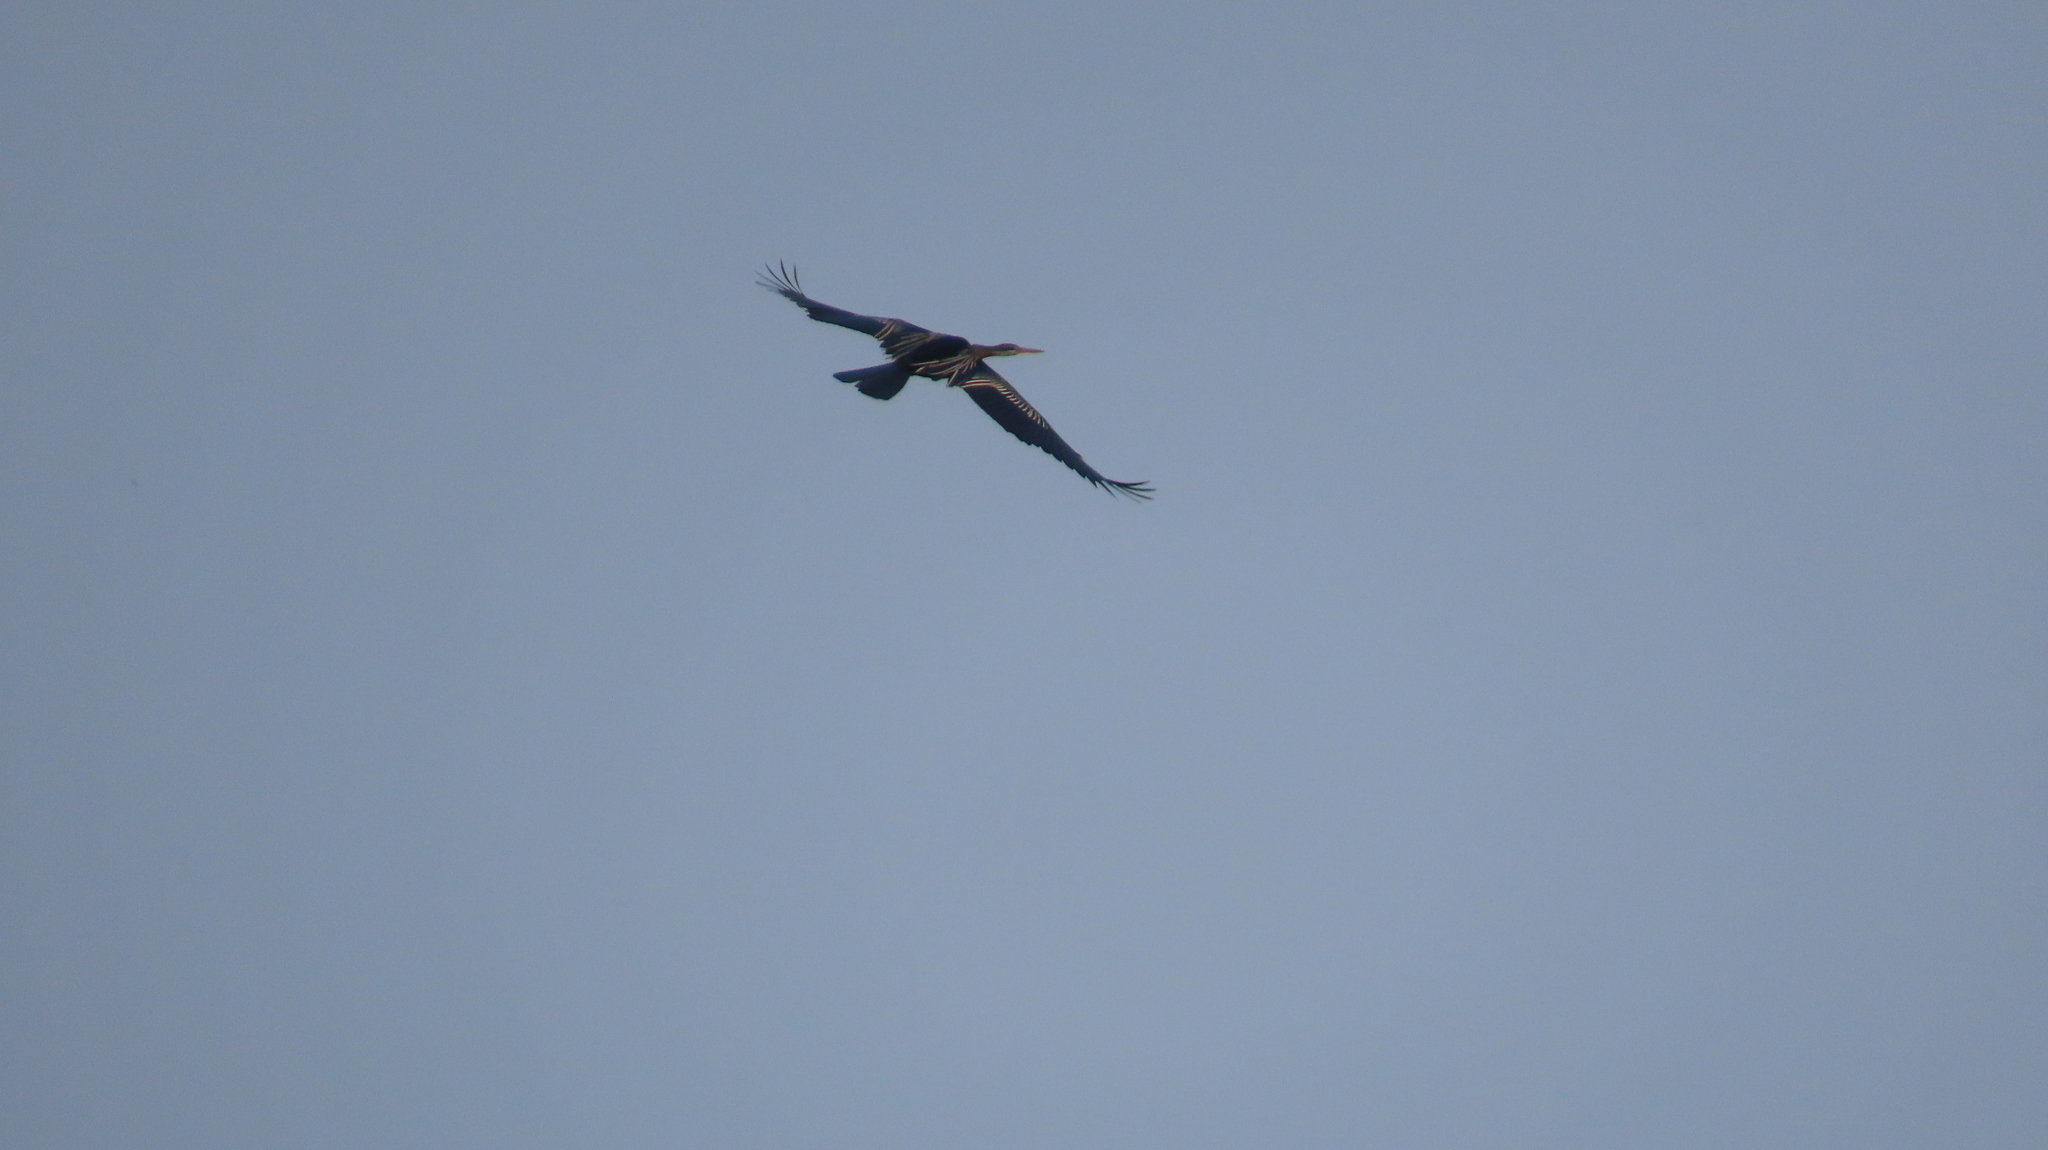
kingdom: Animalia
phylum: Chordata
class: Aves
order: Suliformes
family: Anhingidae
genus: Anhinga
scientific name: Anhinga melanogaster
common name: Oriental darter
